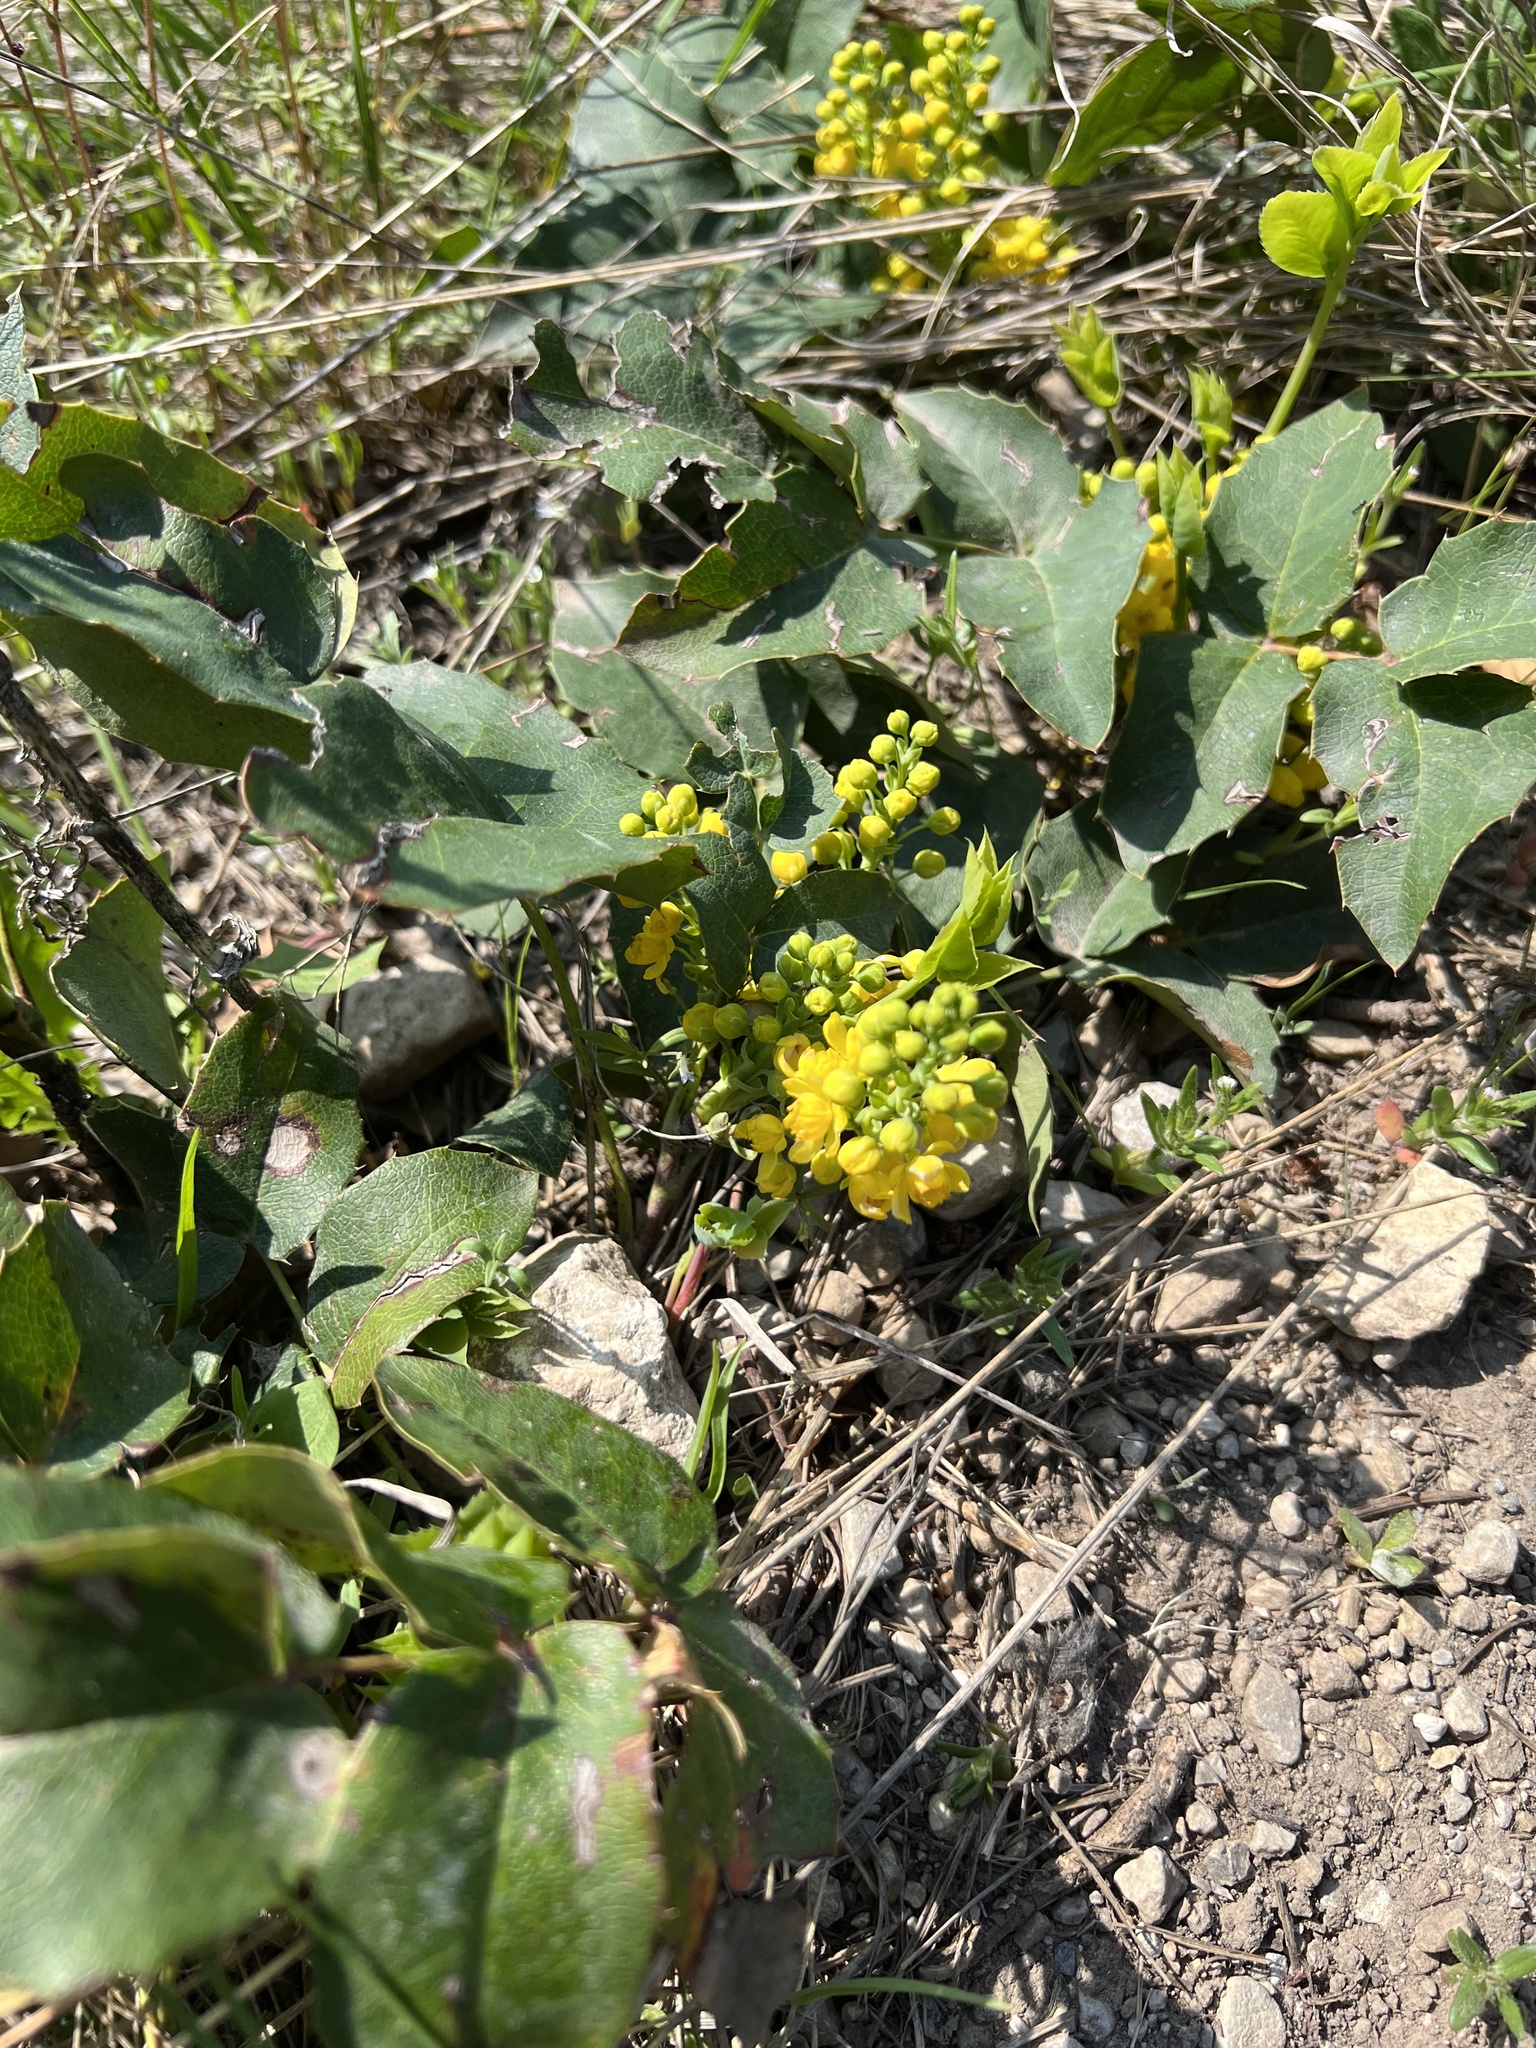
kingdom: Plantae
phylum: Tracheophyta
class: Magnoliopsida
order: Ranunculales
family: Berberidaceae
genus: Mahonia
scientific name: Mahonia repens
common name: Creeping oregon-grape
